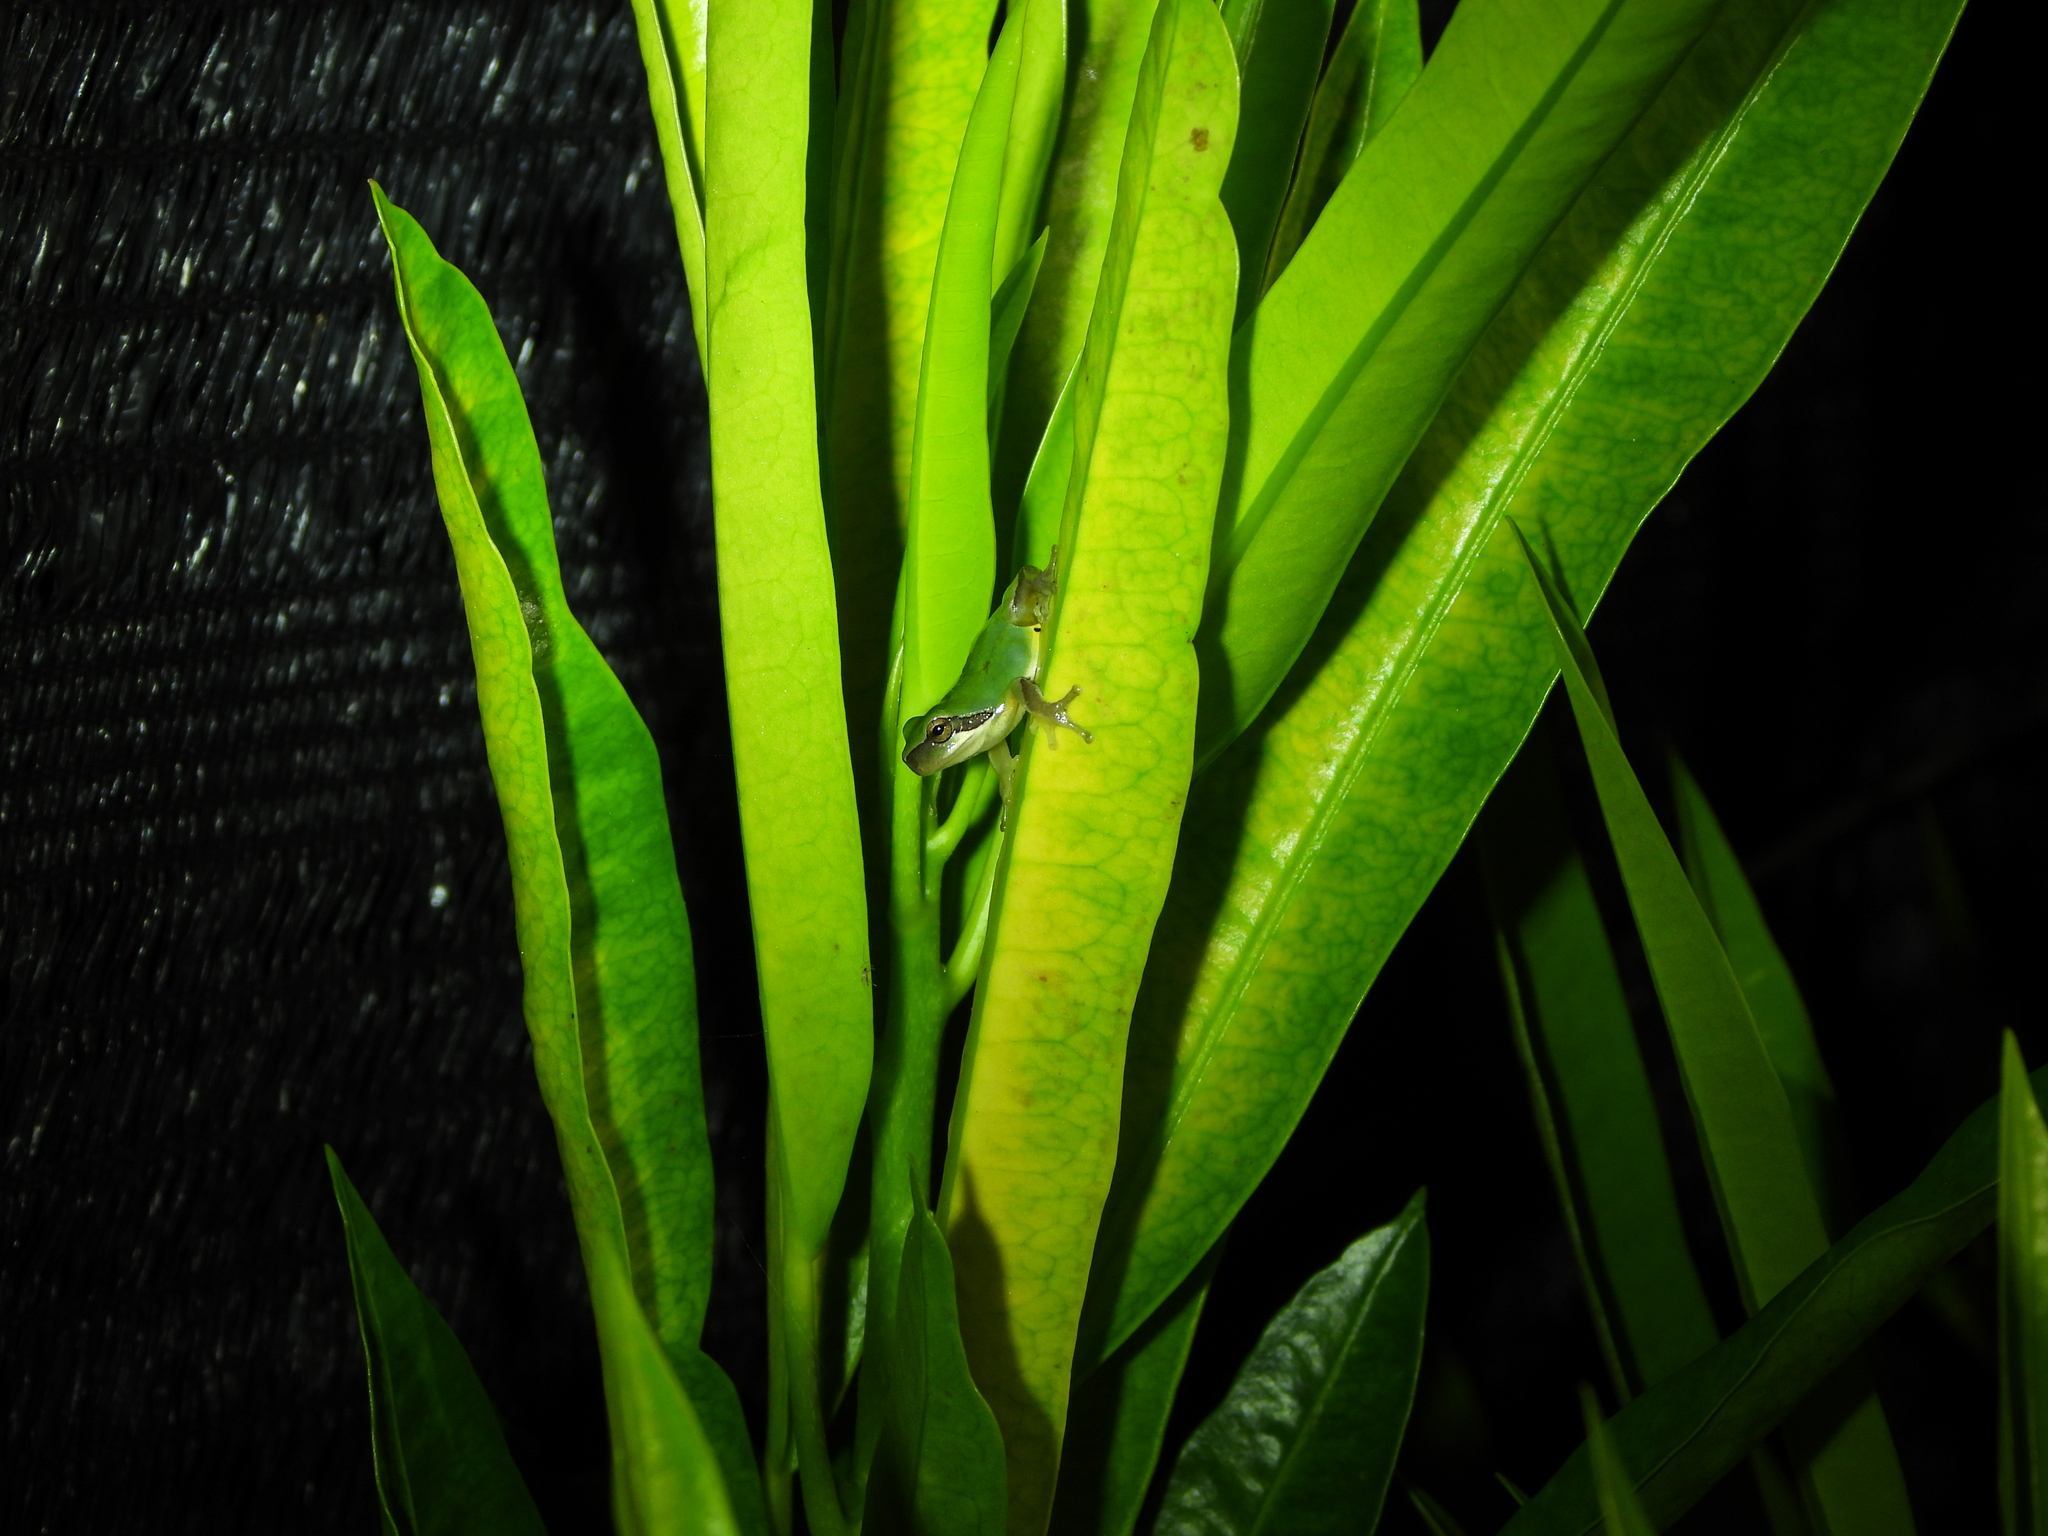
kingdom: Animalia
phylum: Chordata
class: Amphibia
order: Anura
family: Hylidae
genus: Hyla
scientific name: Hyla chinensis
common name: Common chinese treefrog
